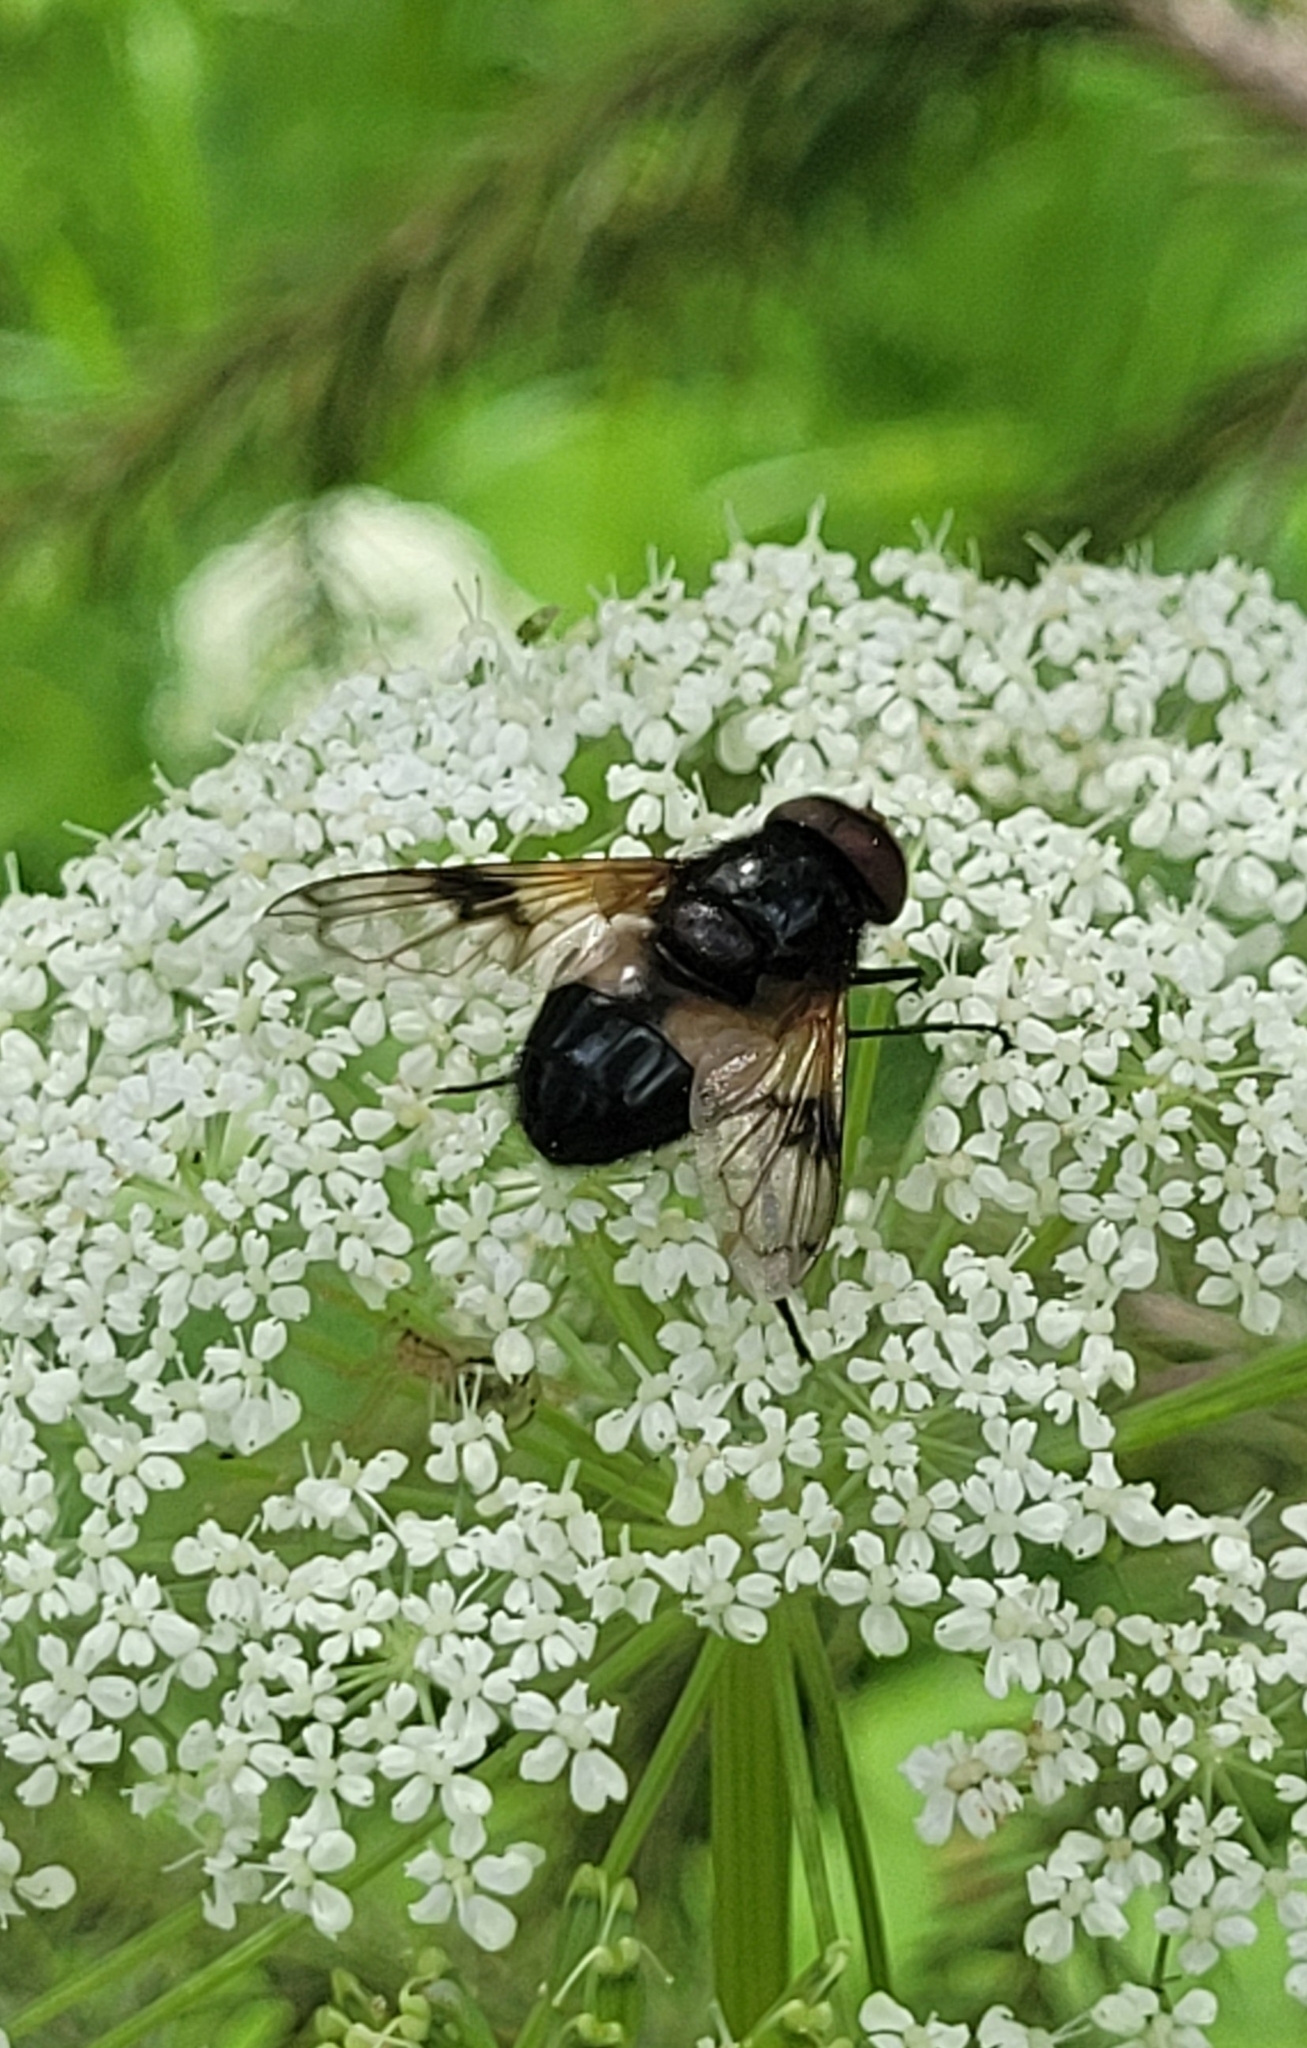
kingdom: Animalia
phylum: Arthropoda
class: Insecta
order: Diptera
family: Syrphidae
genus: Volucella
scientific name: Volucella pellucens
